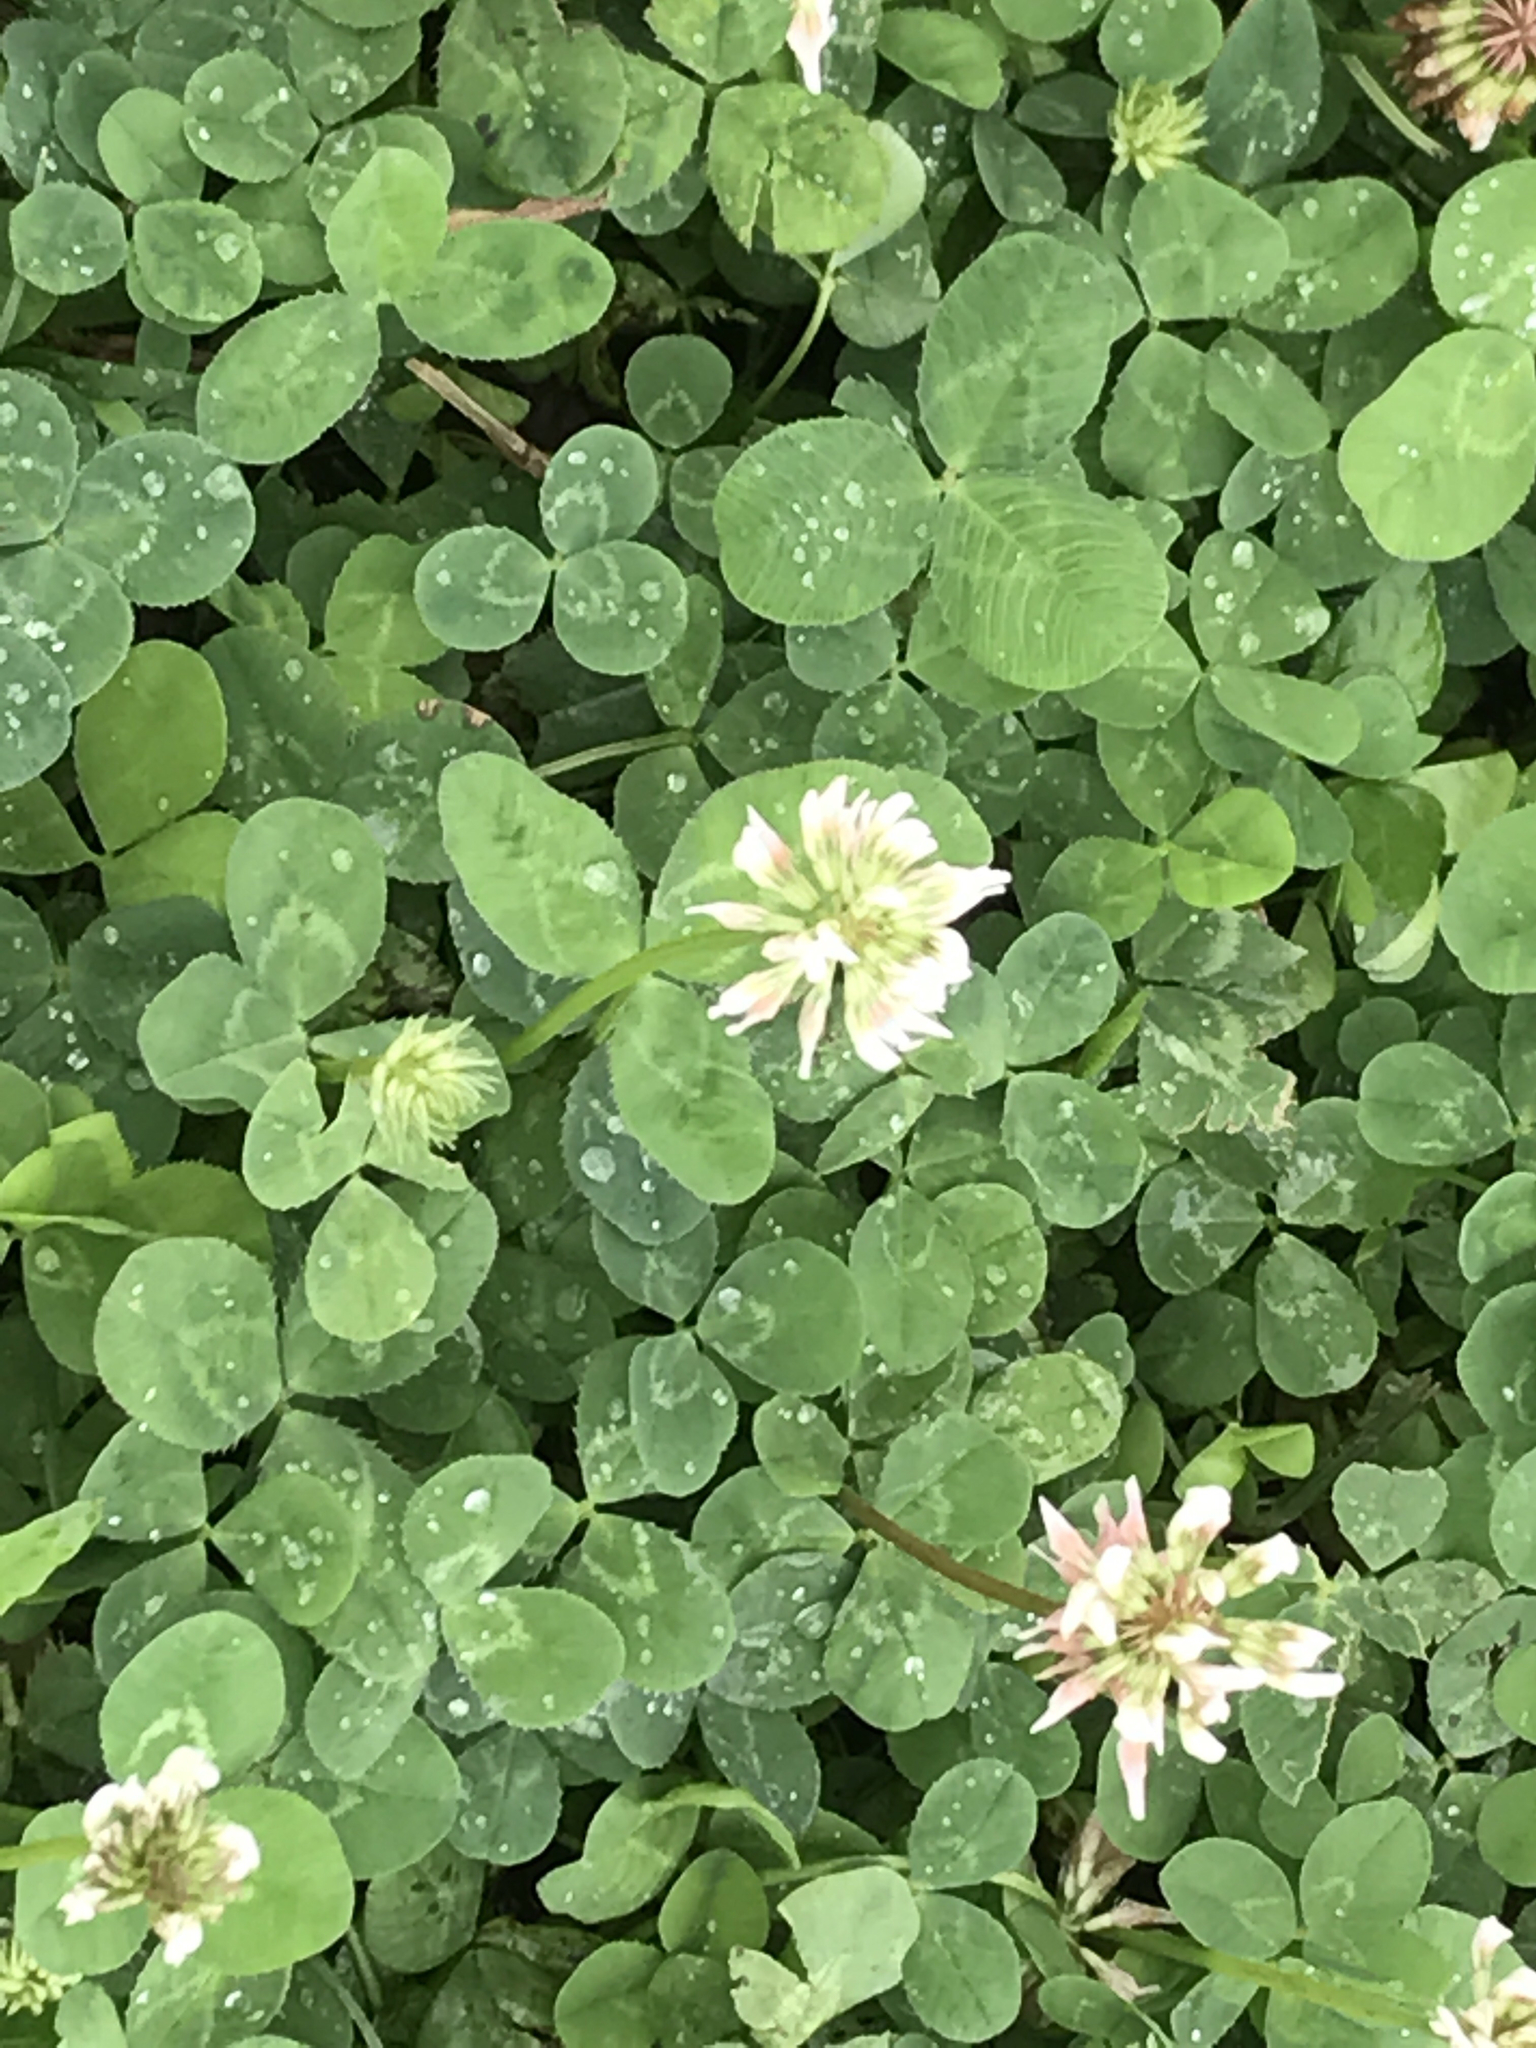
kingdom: Plantae
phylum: Tracheophyta
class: Magnoliopsida
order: Fabales
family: Fabaceae
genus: Trifolium
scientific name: Trifolium repens
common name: White clover
